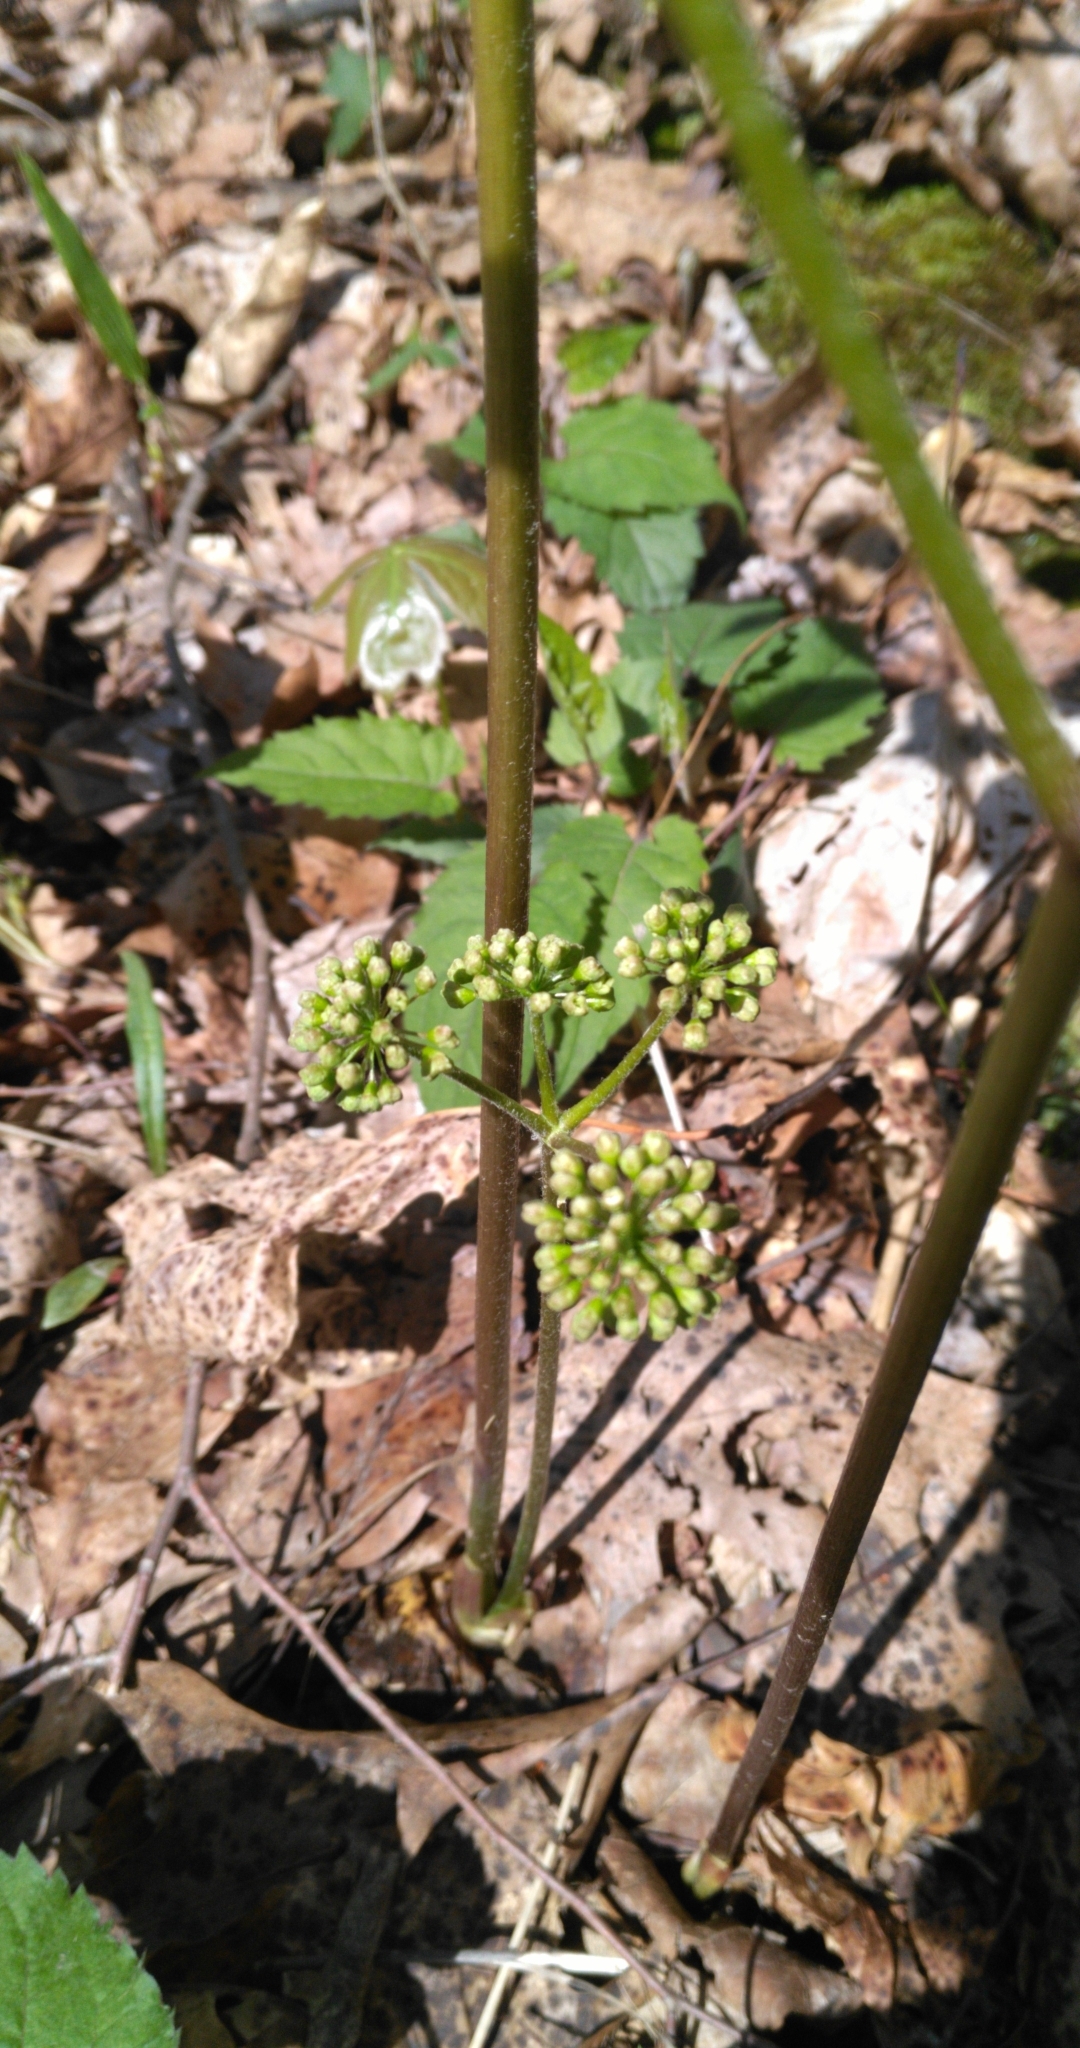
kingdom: Plantae
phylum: Tracheophyta
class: Magnoliopsida
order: Apiales
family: Araliaceae
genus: Aralia
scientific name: Aralia nudicaulis
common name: Wild sarsaparilla
